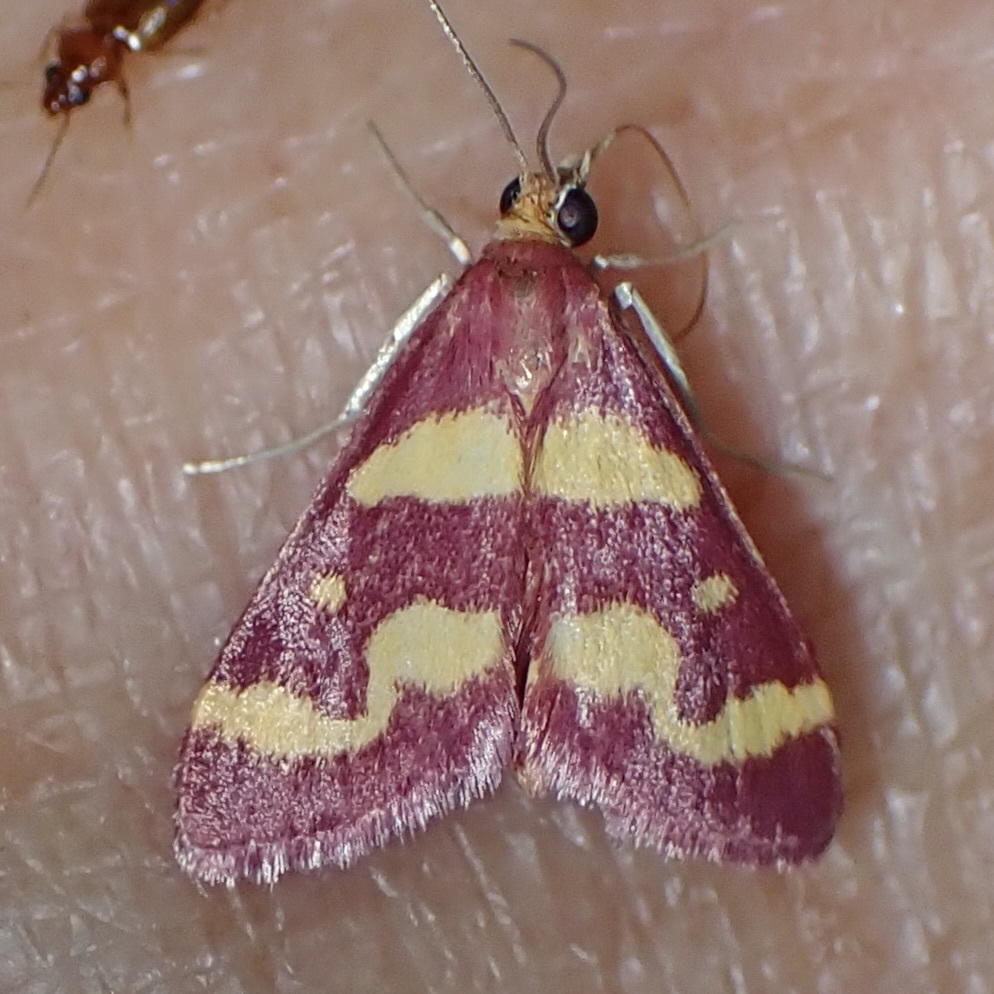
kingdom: Animalia
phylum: Arthropoda
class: Insecta
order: Lepidoptera
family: Crambidae
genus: Pyrausta
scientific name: Pyrausta tyralis
